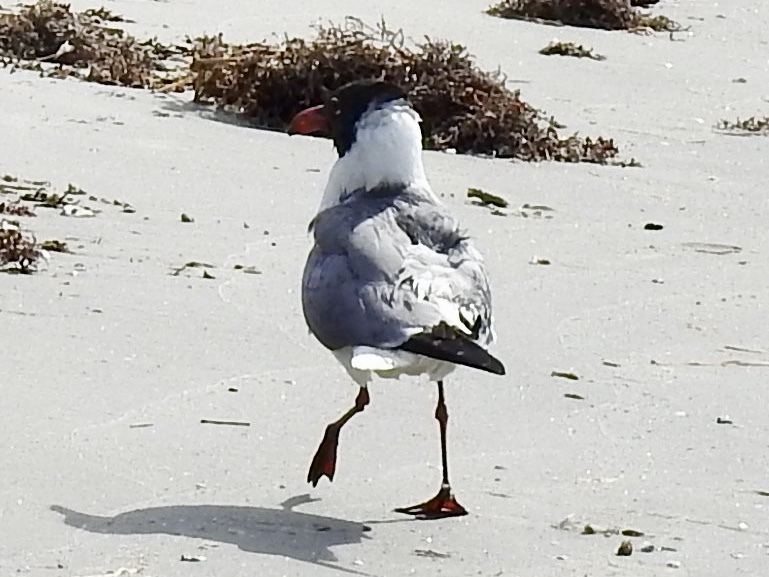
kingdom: Animalia
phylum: Chordata
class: Aves
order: Charadriiformes
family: Laridae
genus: Leucophaeus
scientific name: Leucophaeus atricilla
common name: Laughing gull
